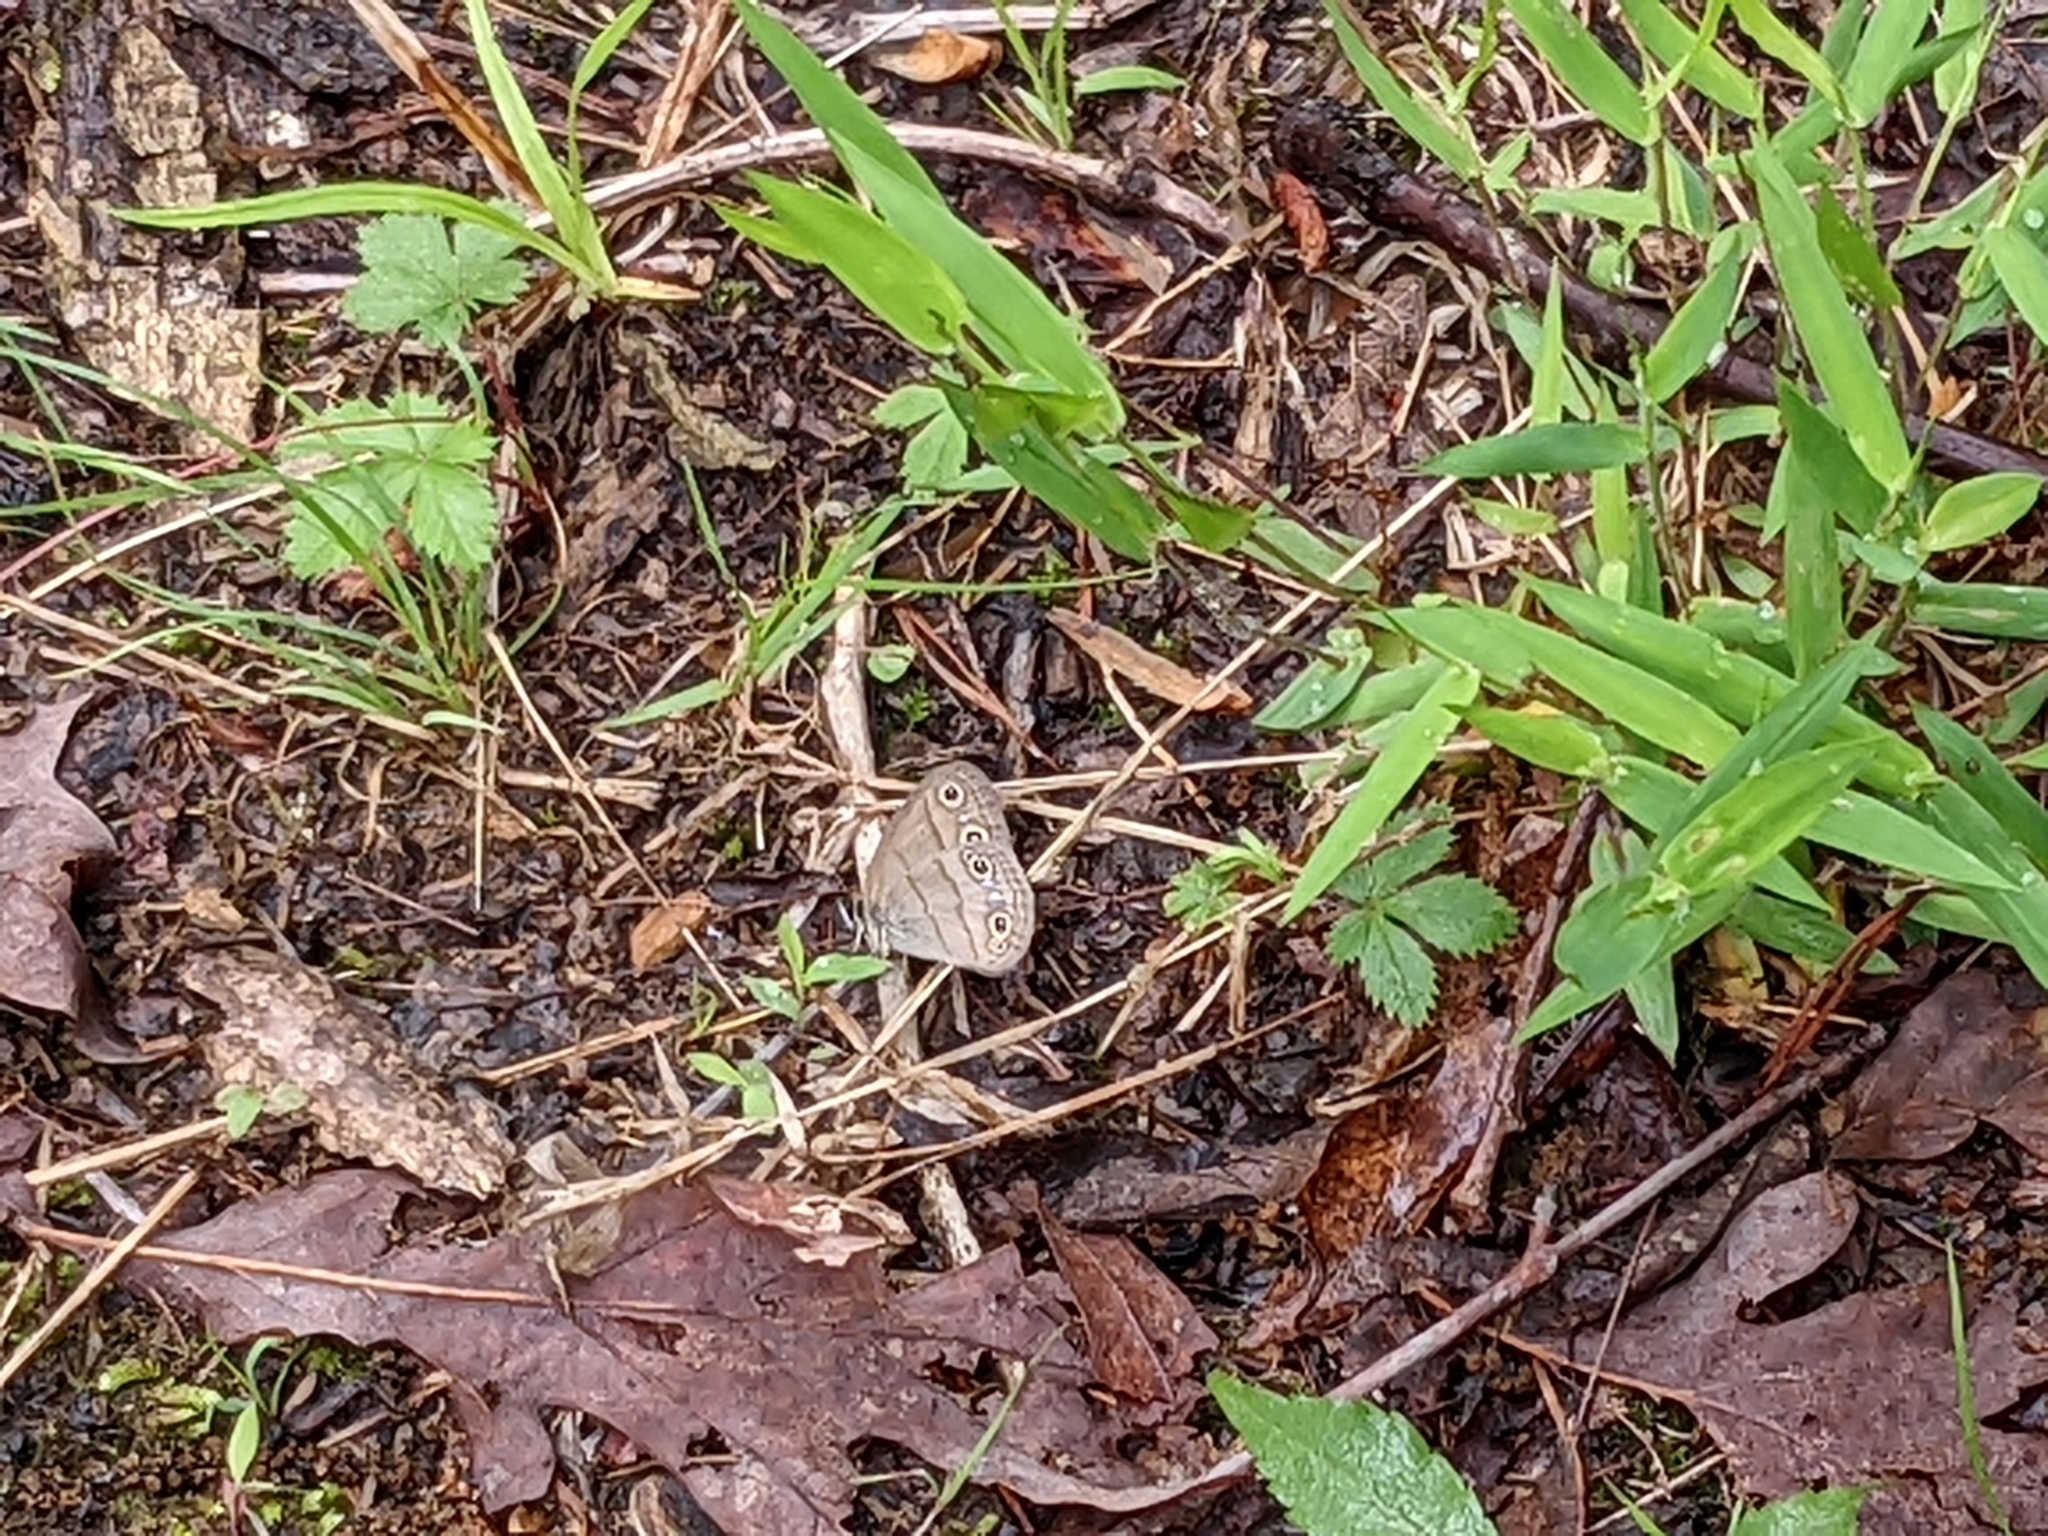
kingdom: Animalia
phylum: Arthropoda
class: Insecta
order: Lepidoptera
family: Nymphalidae
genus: Euptychia
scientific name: Euptychia cymela
